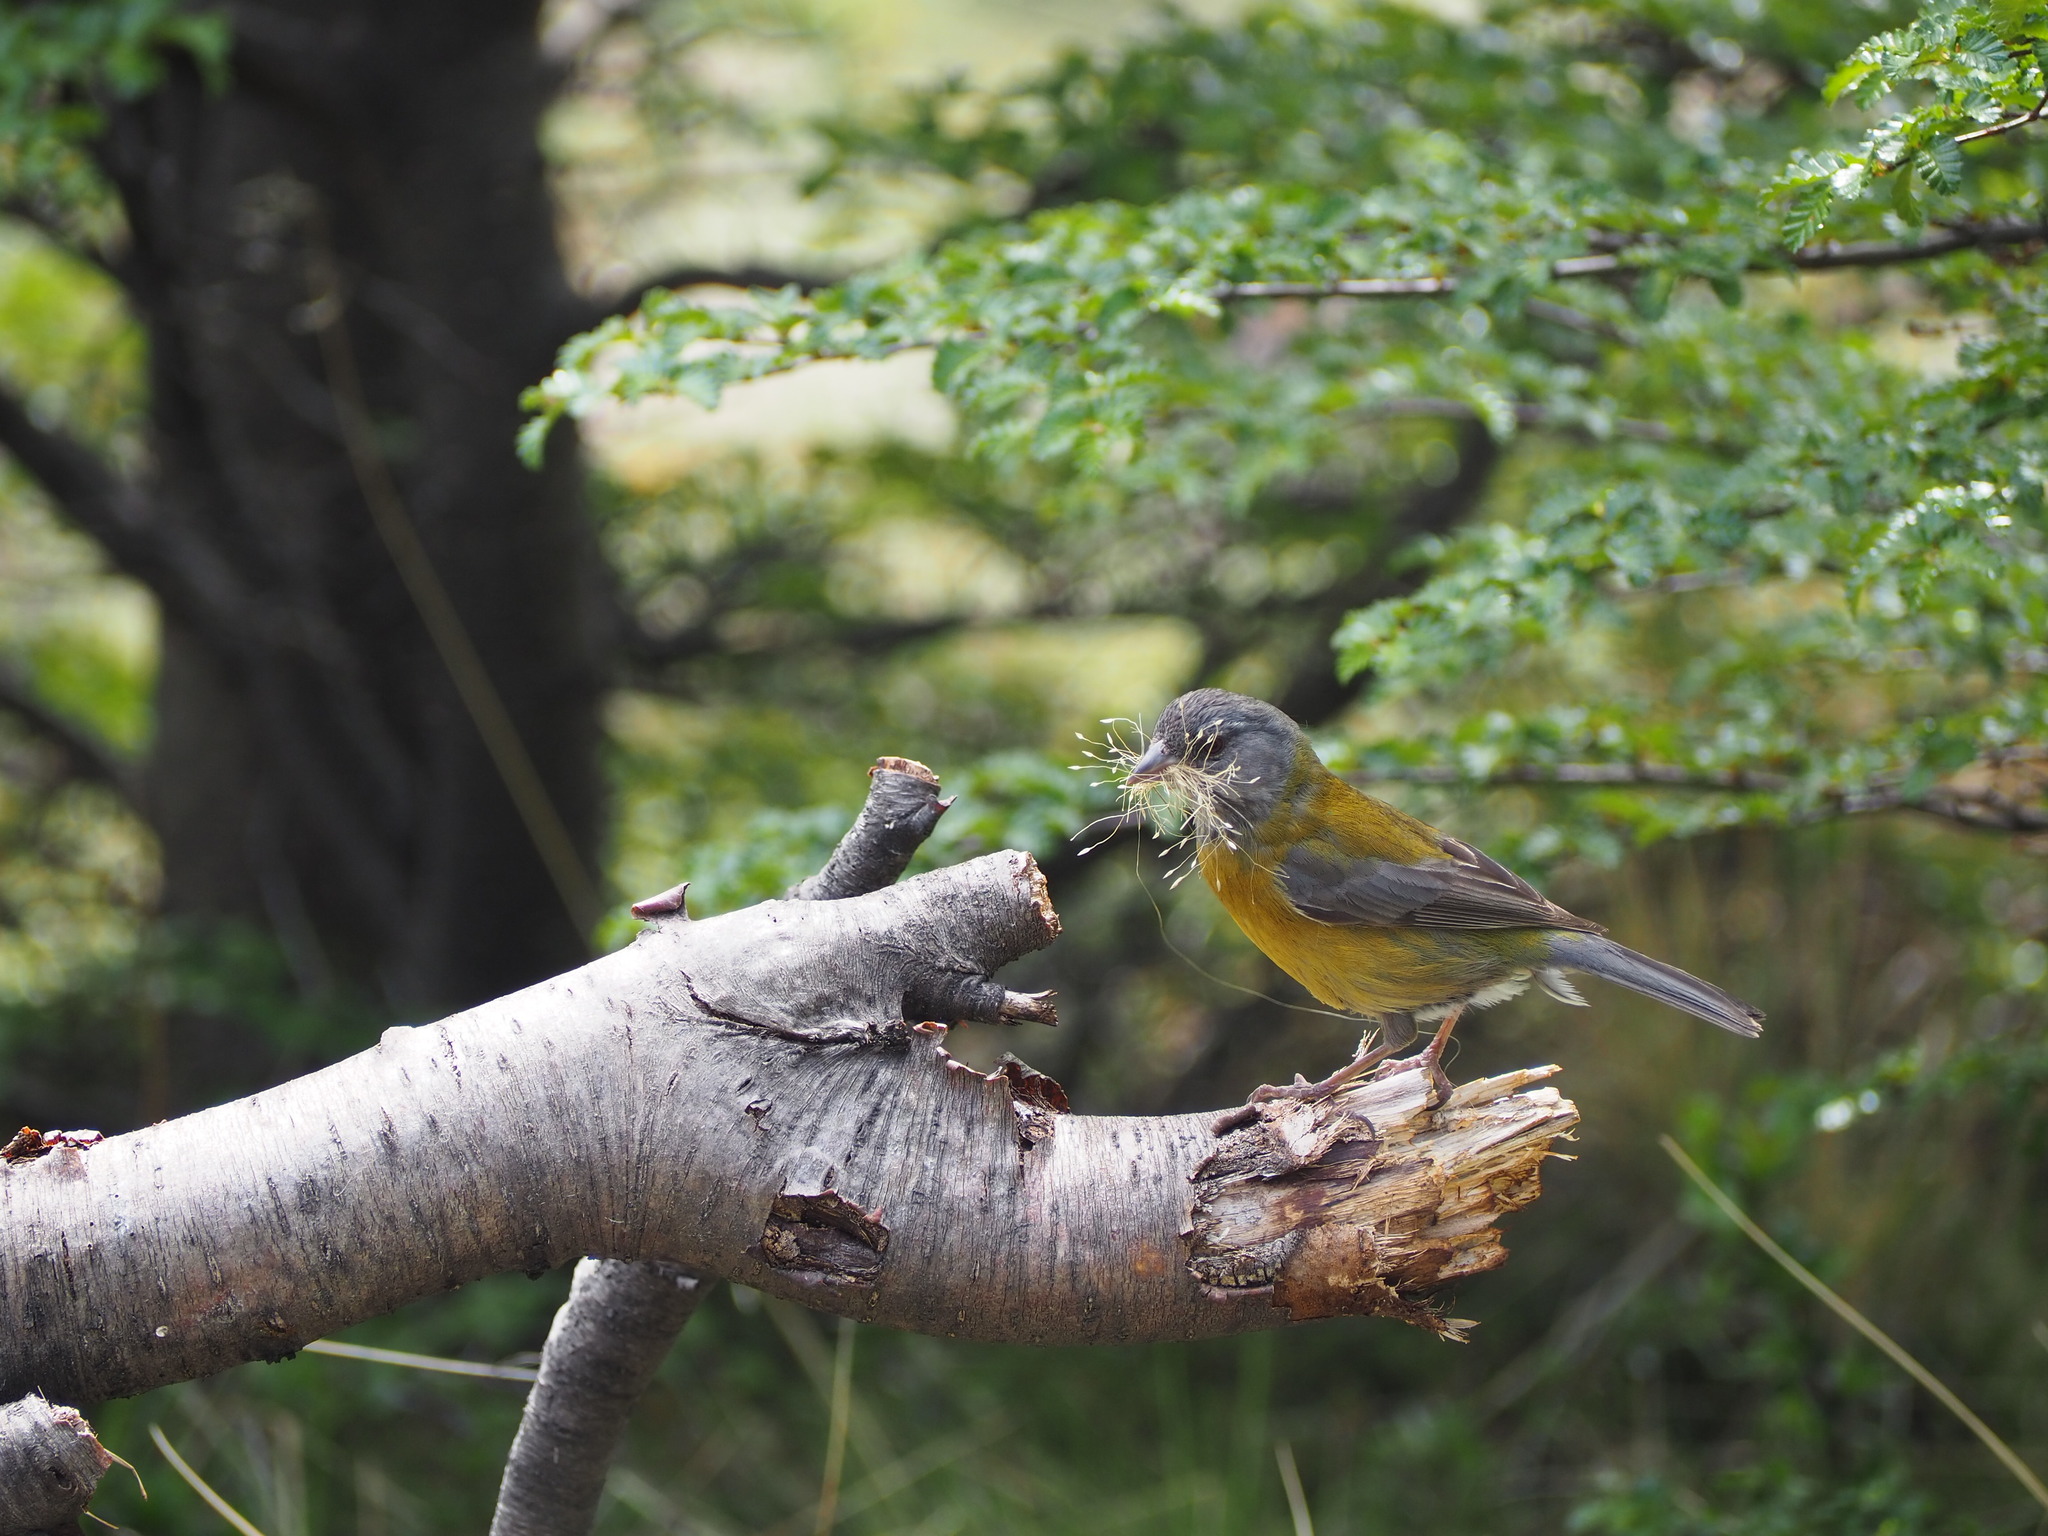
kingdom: Animalia
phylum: Chordata
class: Aves
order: Passeriformes
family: Thraupidae
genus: Phrygilus
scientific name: Phrygilus patagonicus
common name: Patagonian sierra finch
